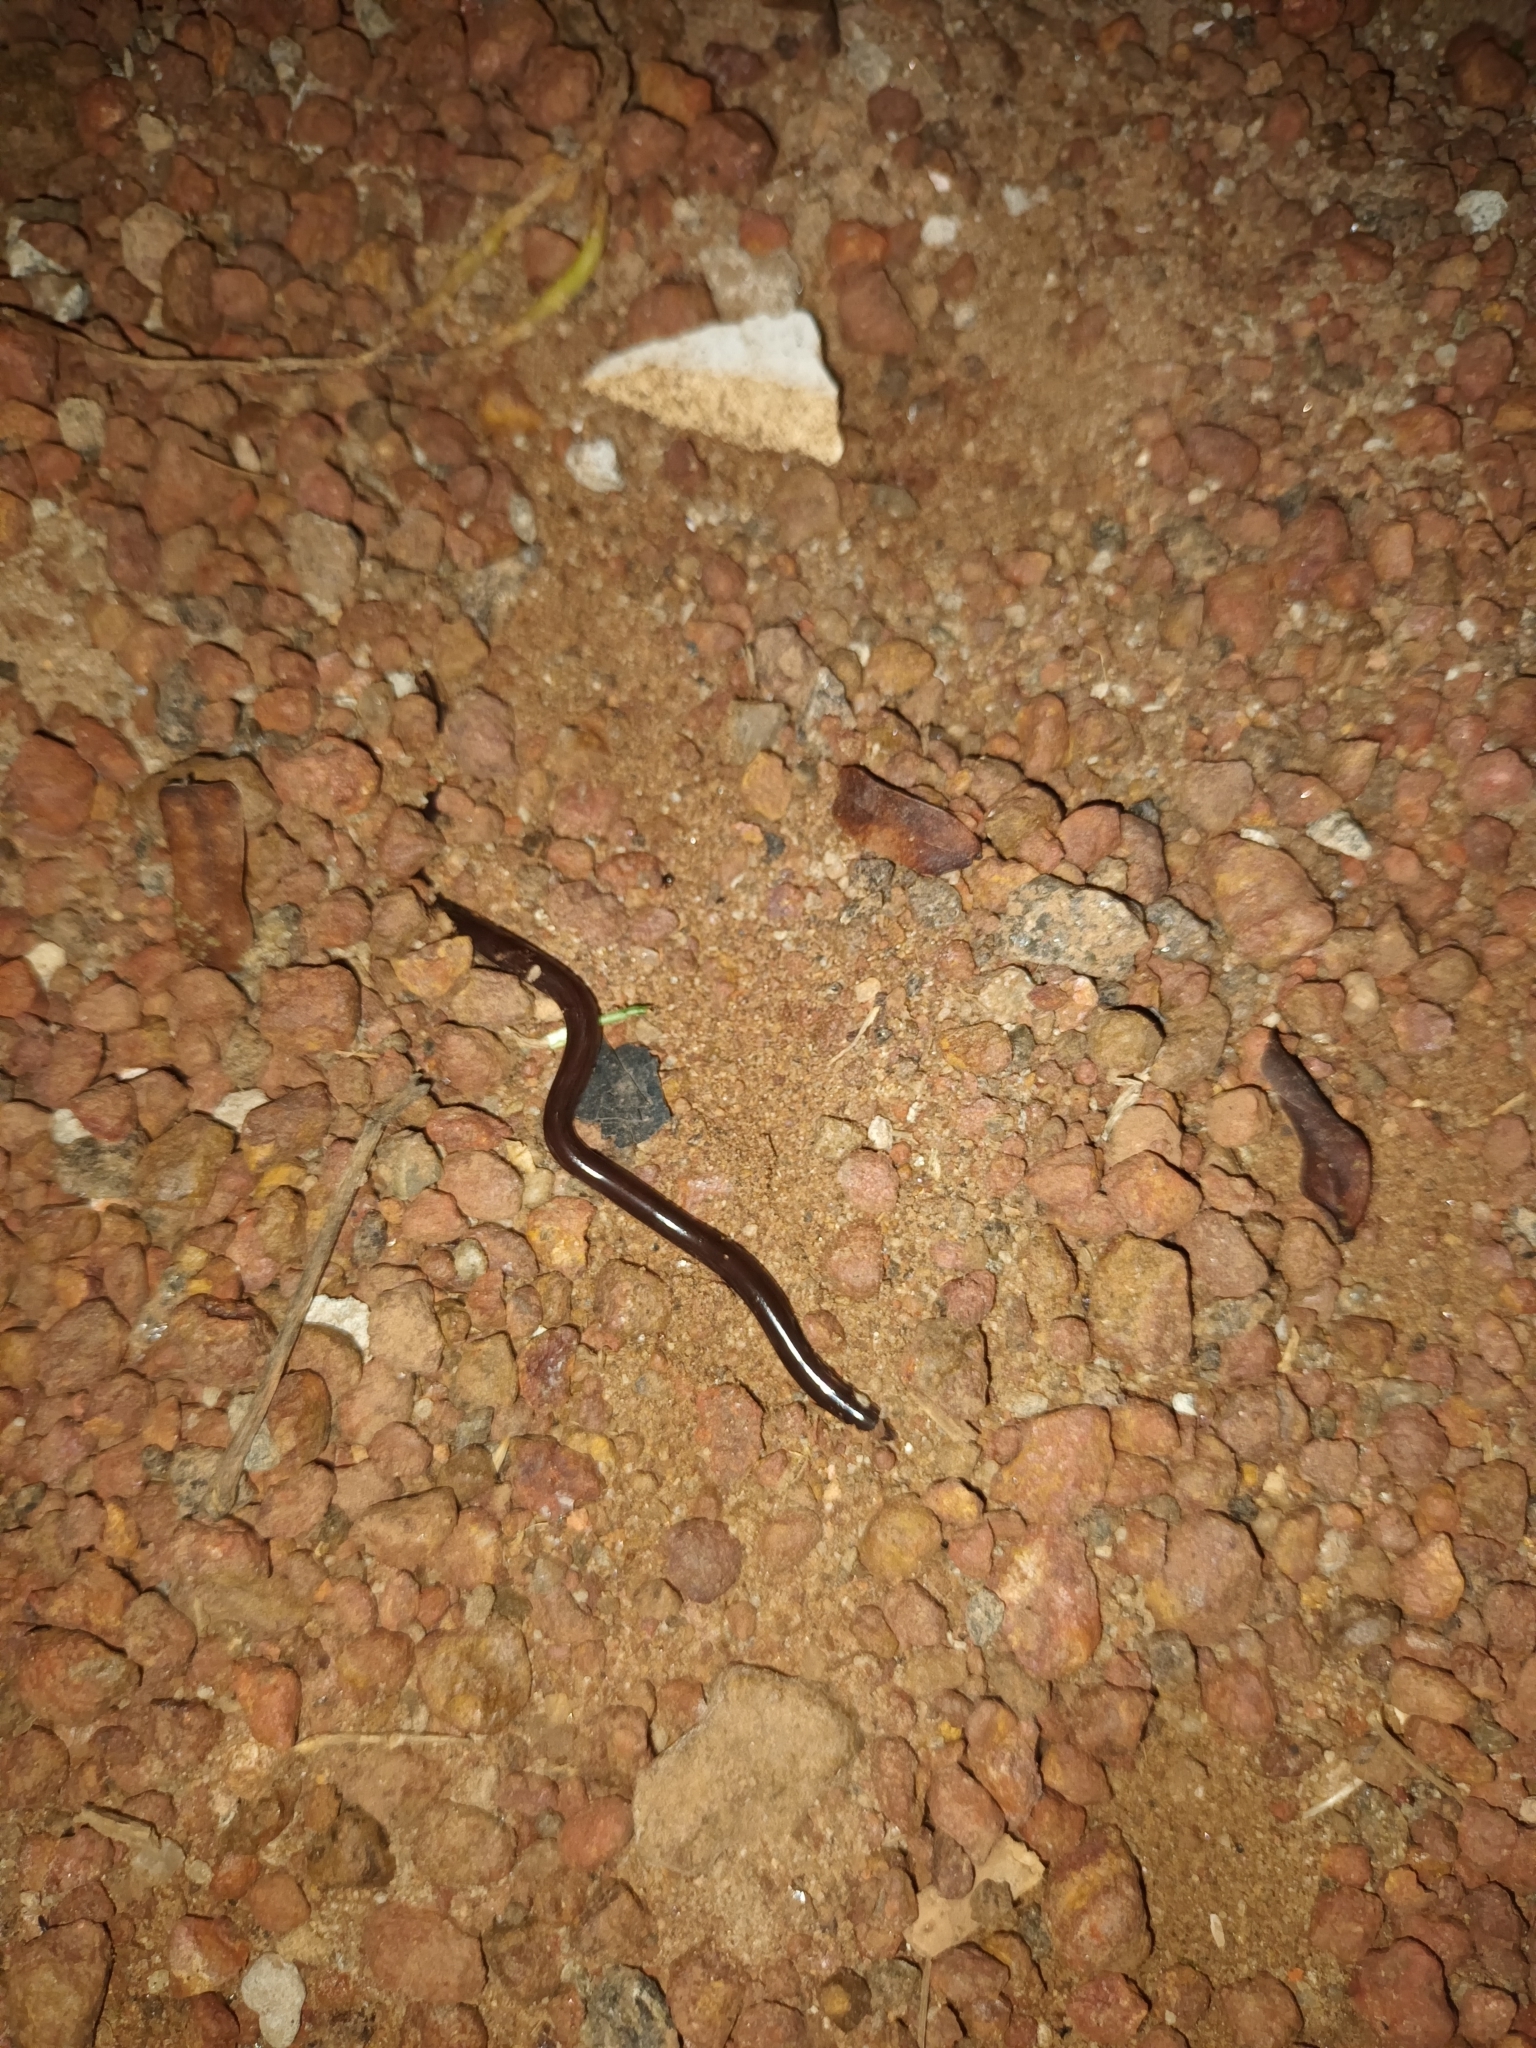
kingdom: Animalia
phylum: Chordata
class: Squamata
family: Typhlopidae
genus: Indotyphlops
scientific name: Indotyphlops braminus
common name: Brahminy blindsnake
